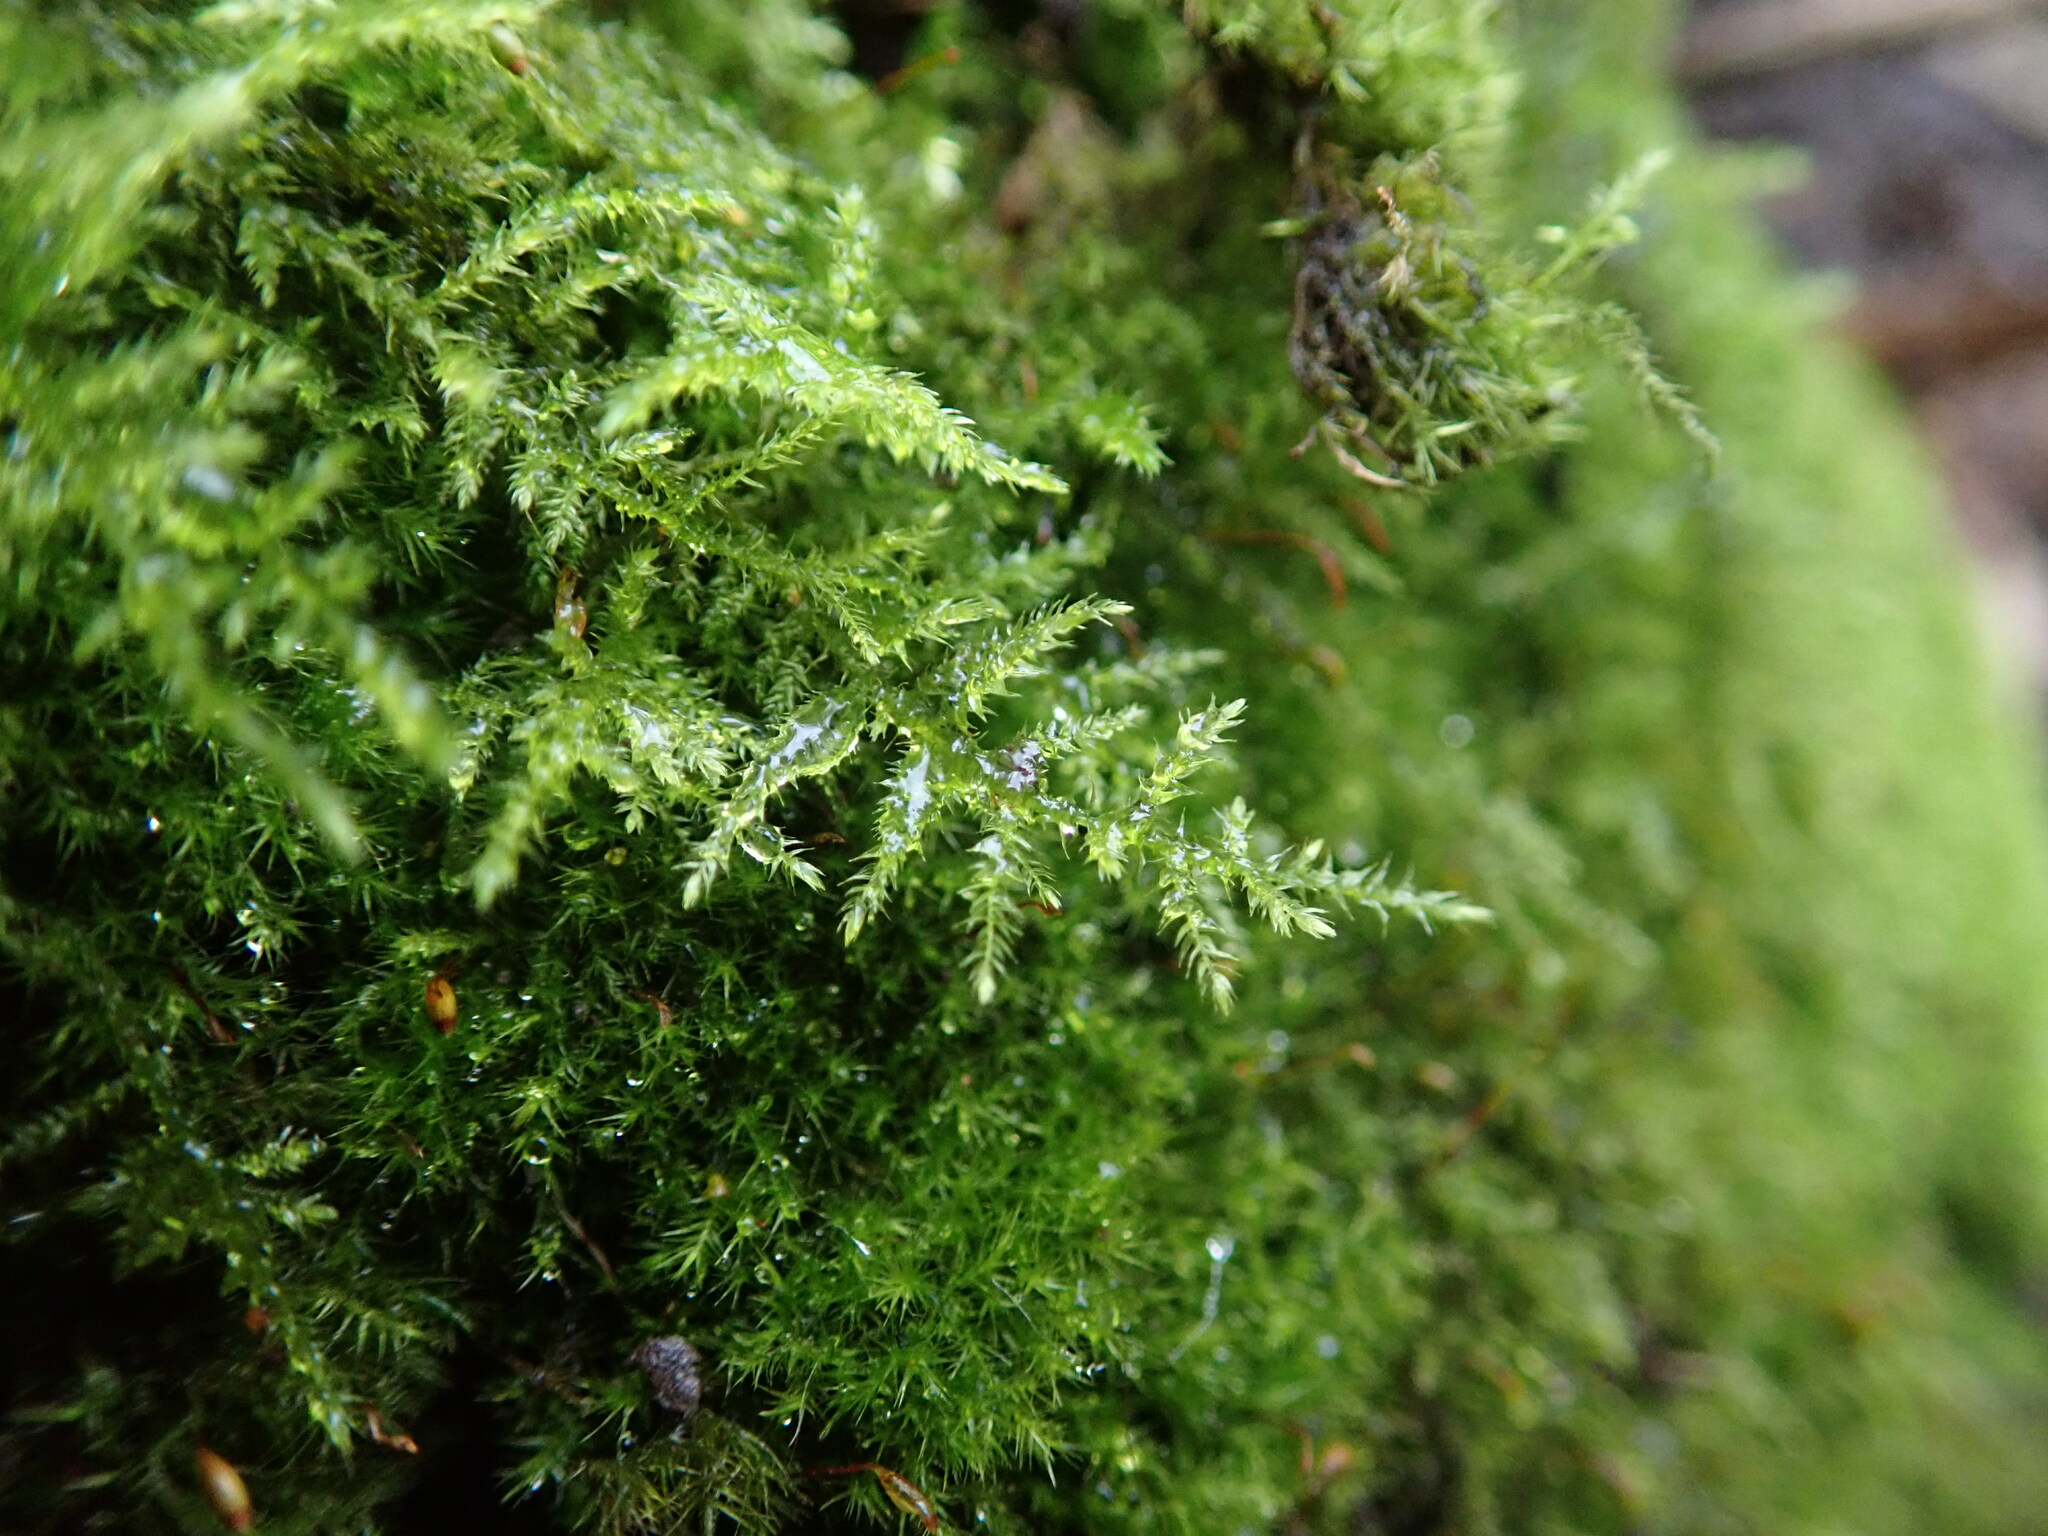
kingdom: Plantae
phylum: Bryophyta
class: Bryopsida
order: Hypnales
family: Brachytheciaceae
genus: Kindbergia
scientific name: Kindbergia praelonga
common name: Slender beaked moss
